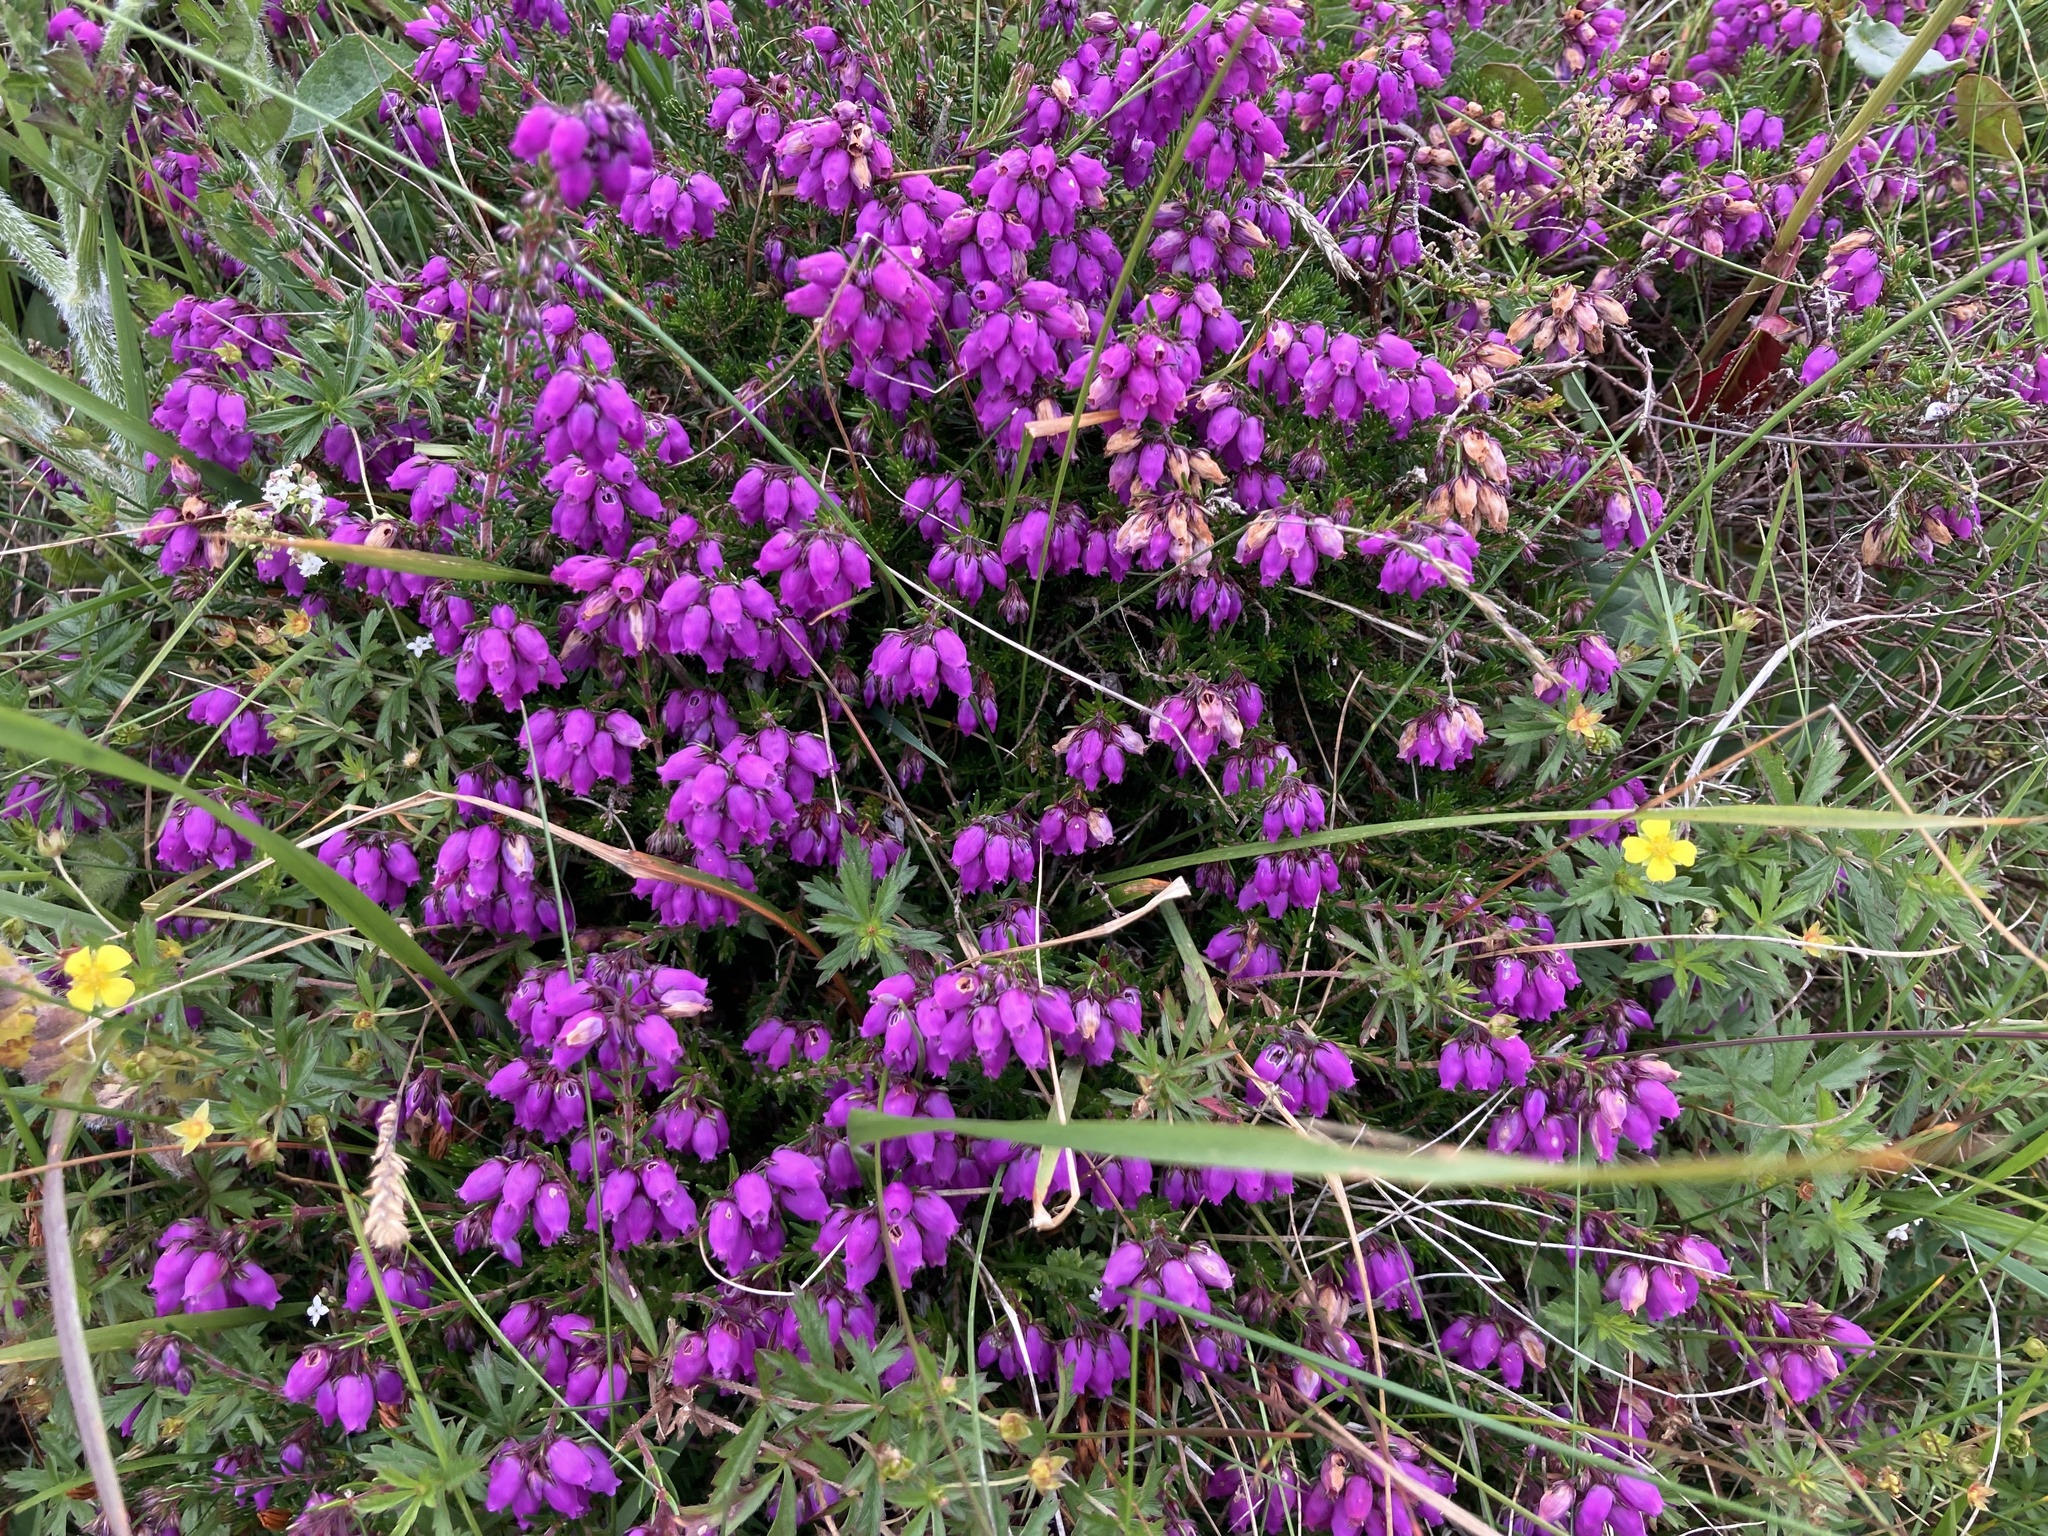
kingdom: Plantae
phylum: Tracheophyta
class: Magnoliopsida
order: Ericales
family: Ericaceae
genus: Erica
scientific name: Erica cinerea
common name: Bell heather
